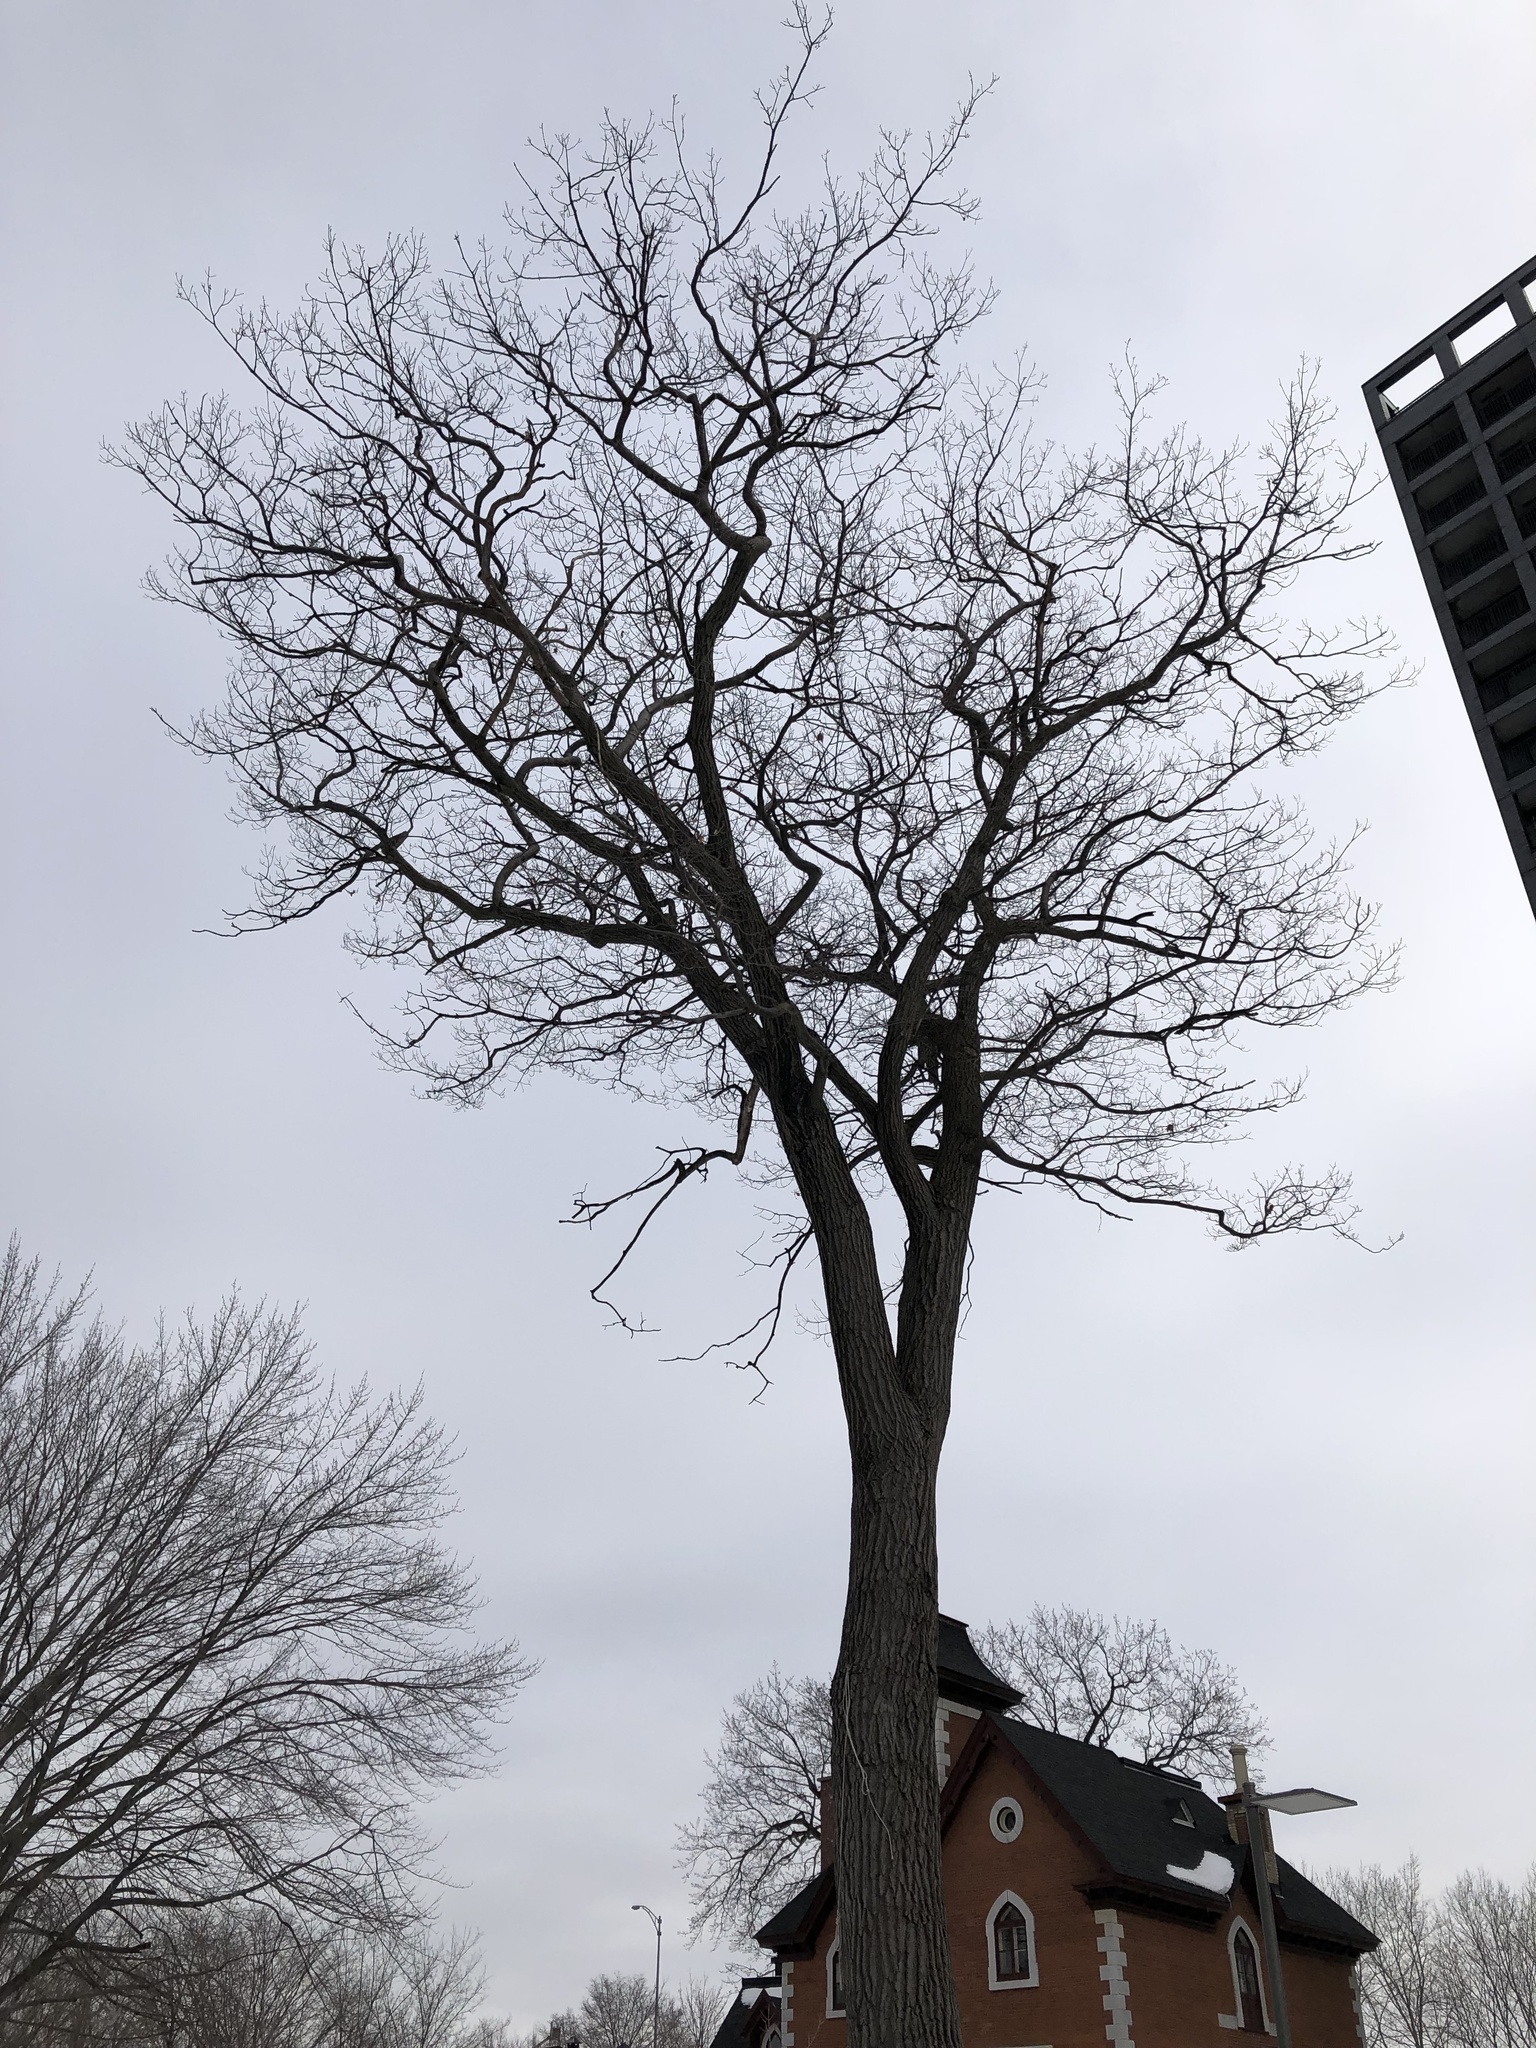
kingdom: Plantae
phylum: Tracheophyta
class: Magnoliopsida
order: Fagales
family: Fagaceae
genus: Quercus
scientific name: Quercus rubra
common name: Red oak
